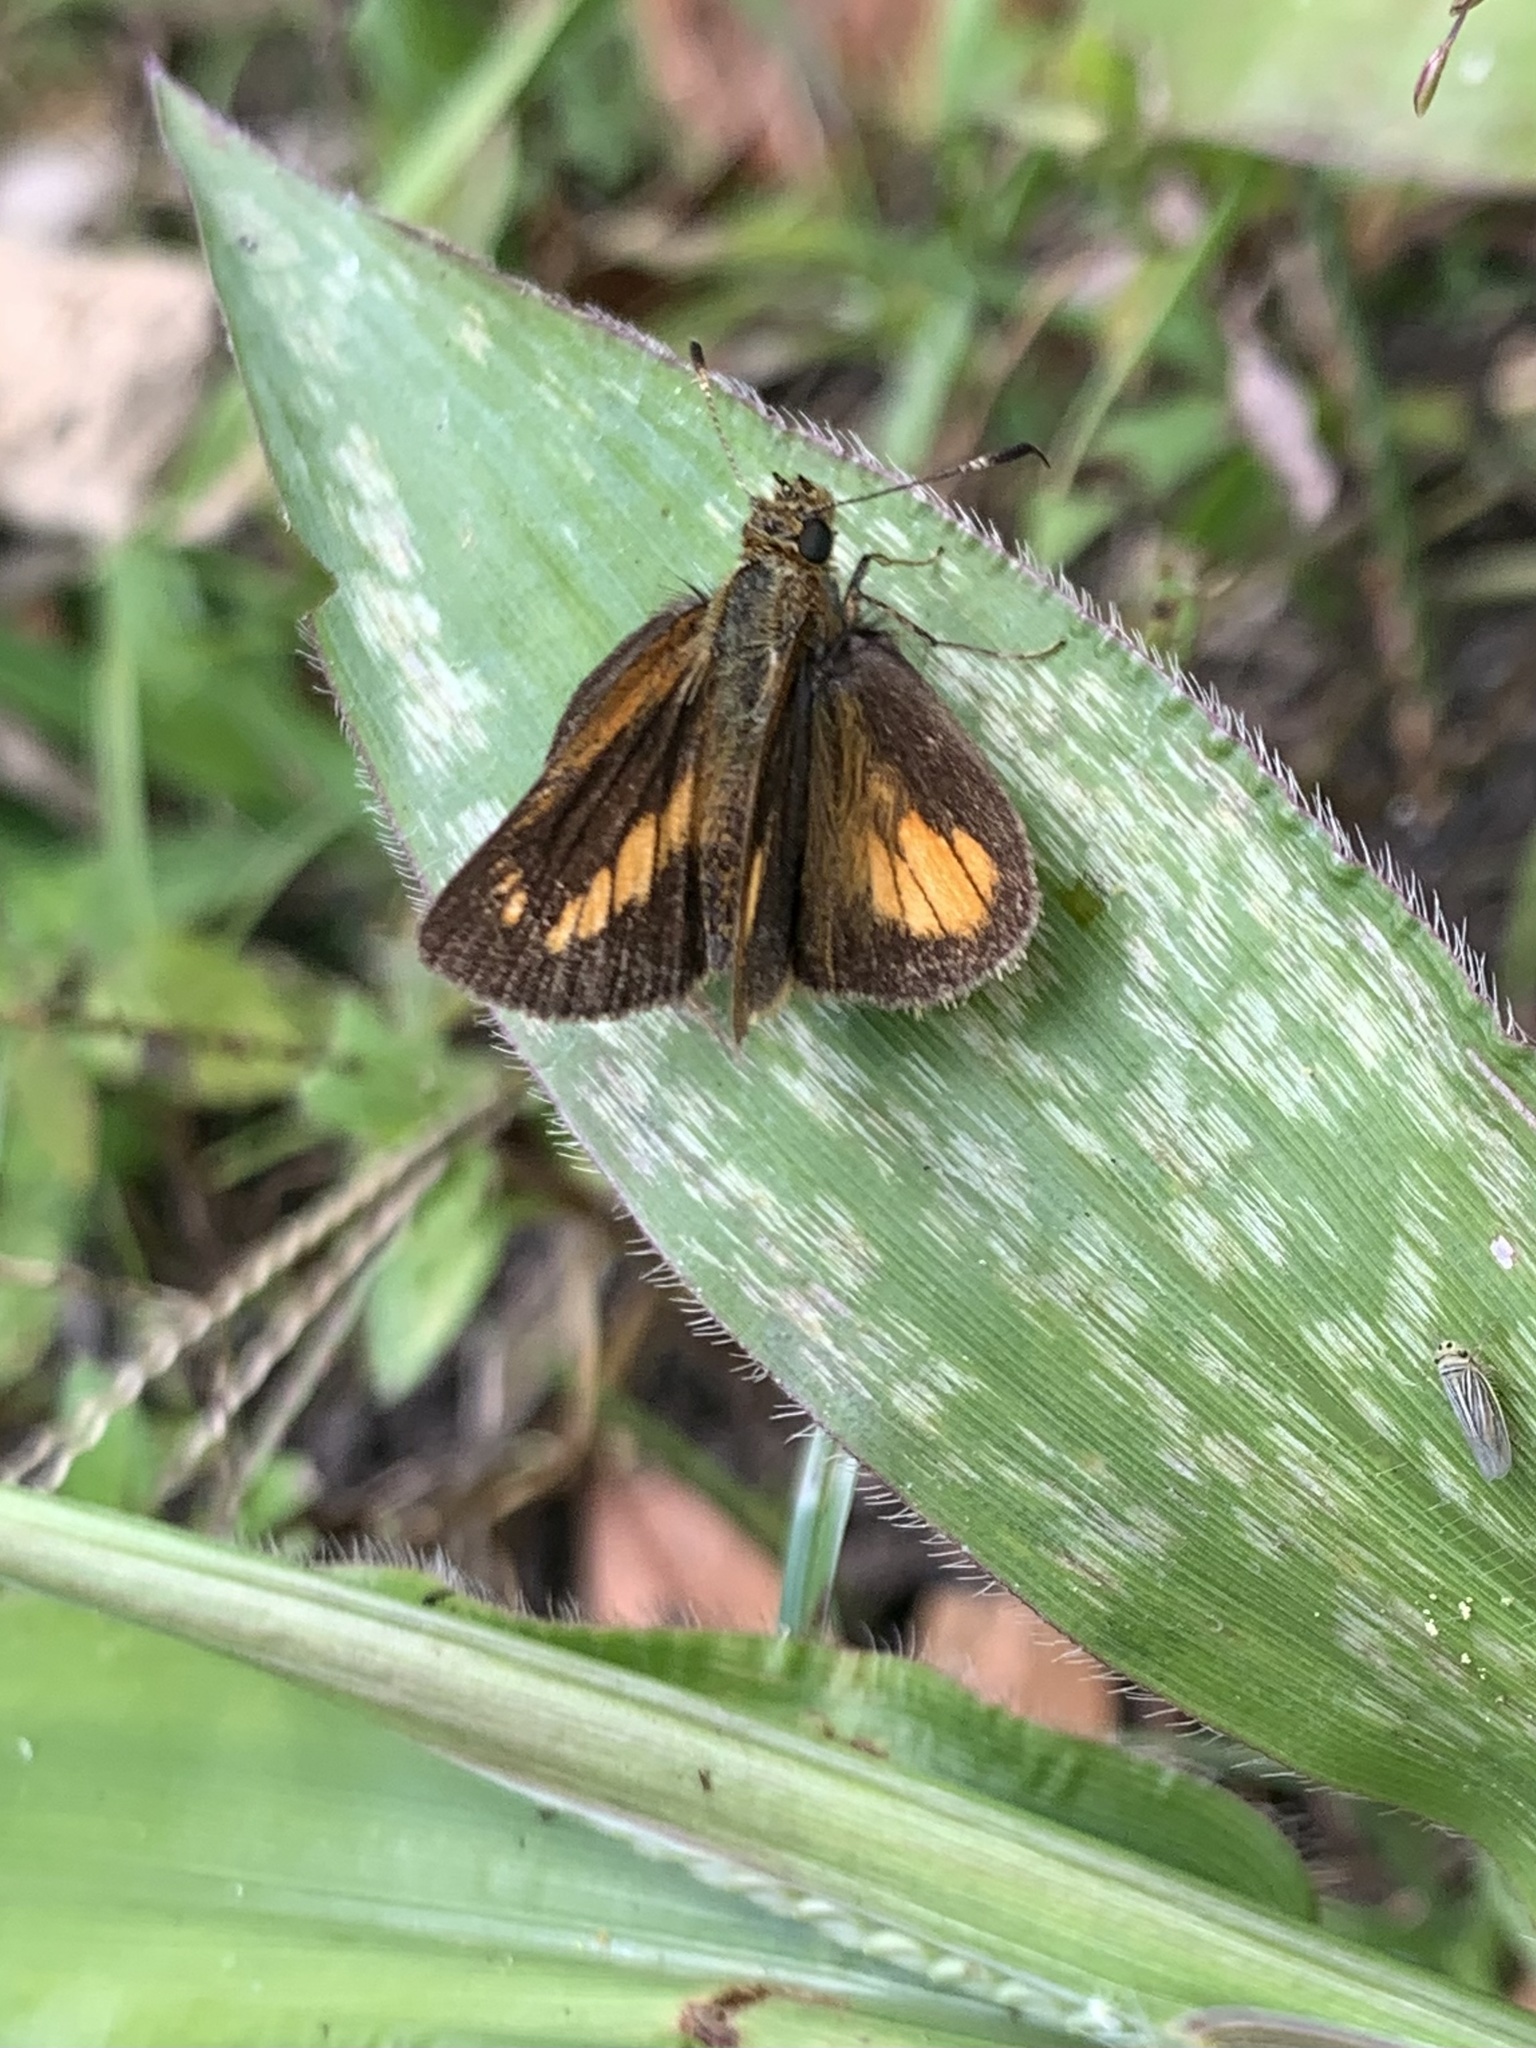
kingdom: Animalia
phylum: Arthropoda
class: Insecta
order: Lepidoptera
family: Hesperiidae
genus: Corticea
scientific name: Corticea mendica
